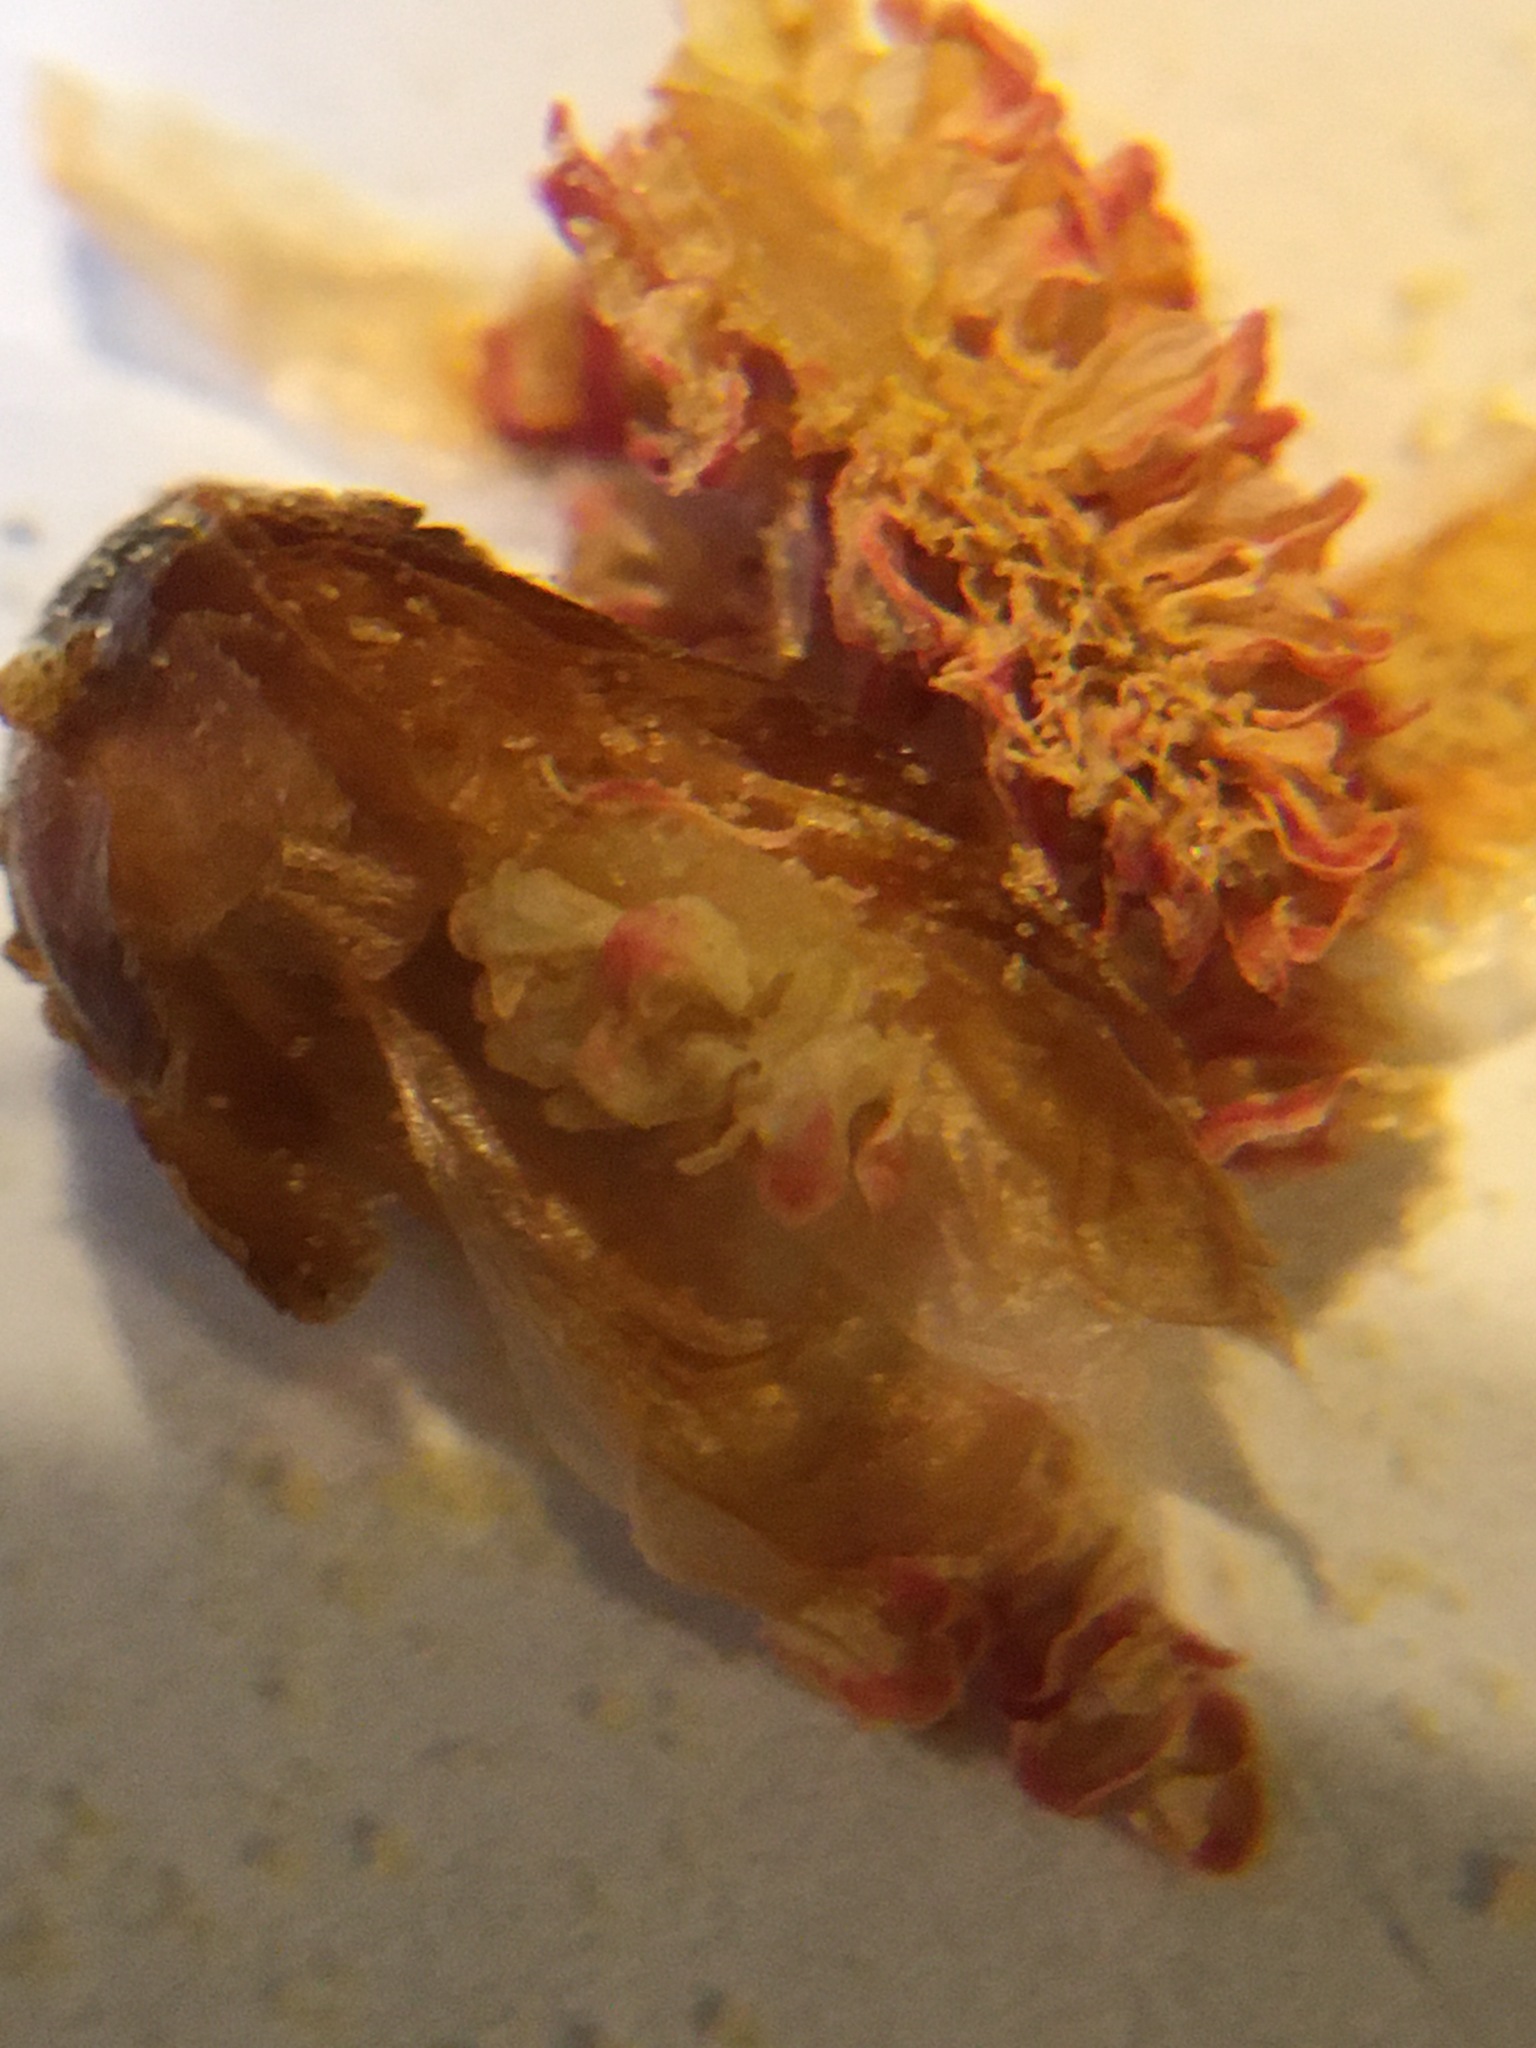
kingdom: Plantae
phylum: Tracheophyta
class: Pinopsida
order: Pinales
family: Pinaceae
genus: Pseudotsuga
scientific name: Pseudotsuga menziesii
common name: Douglas fir
